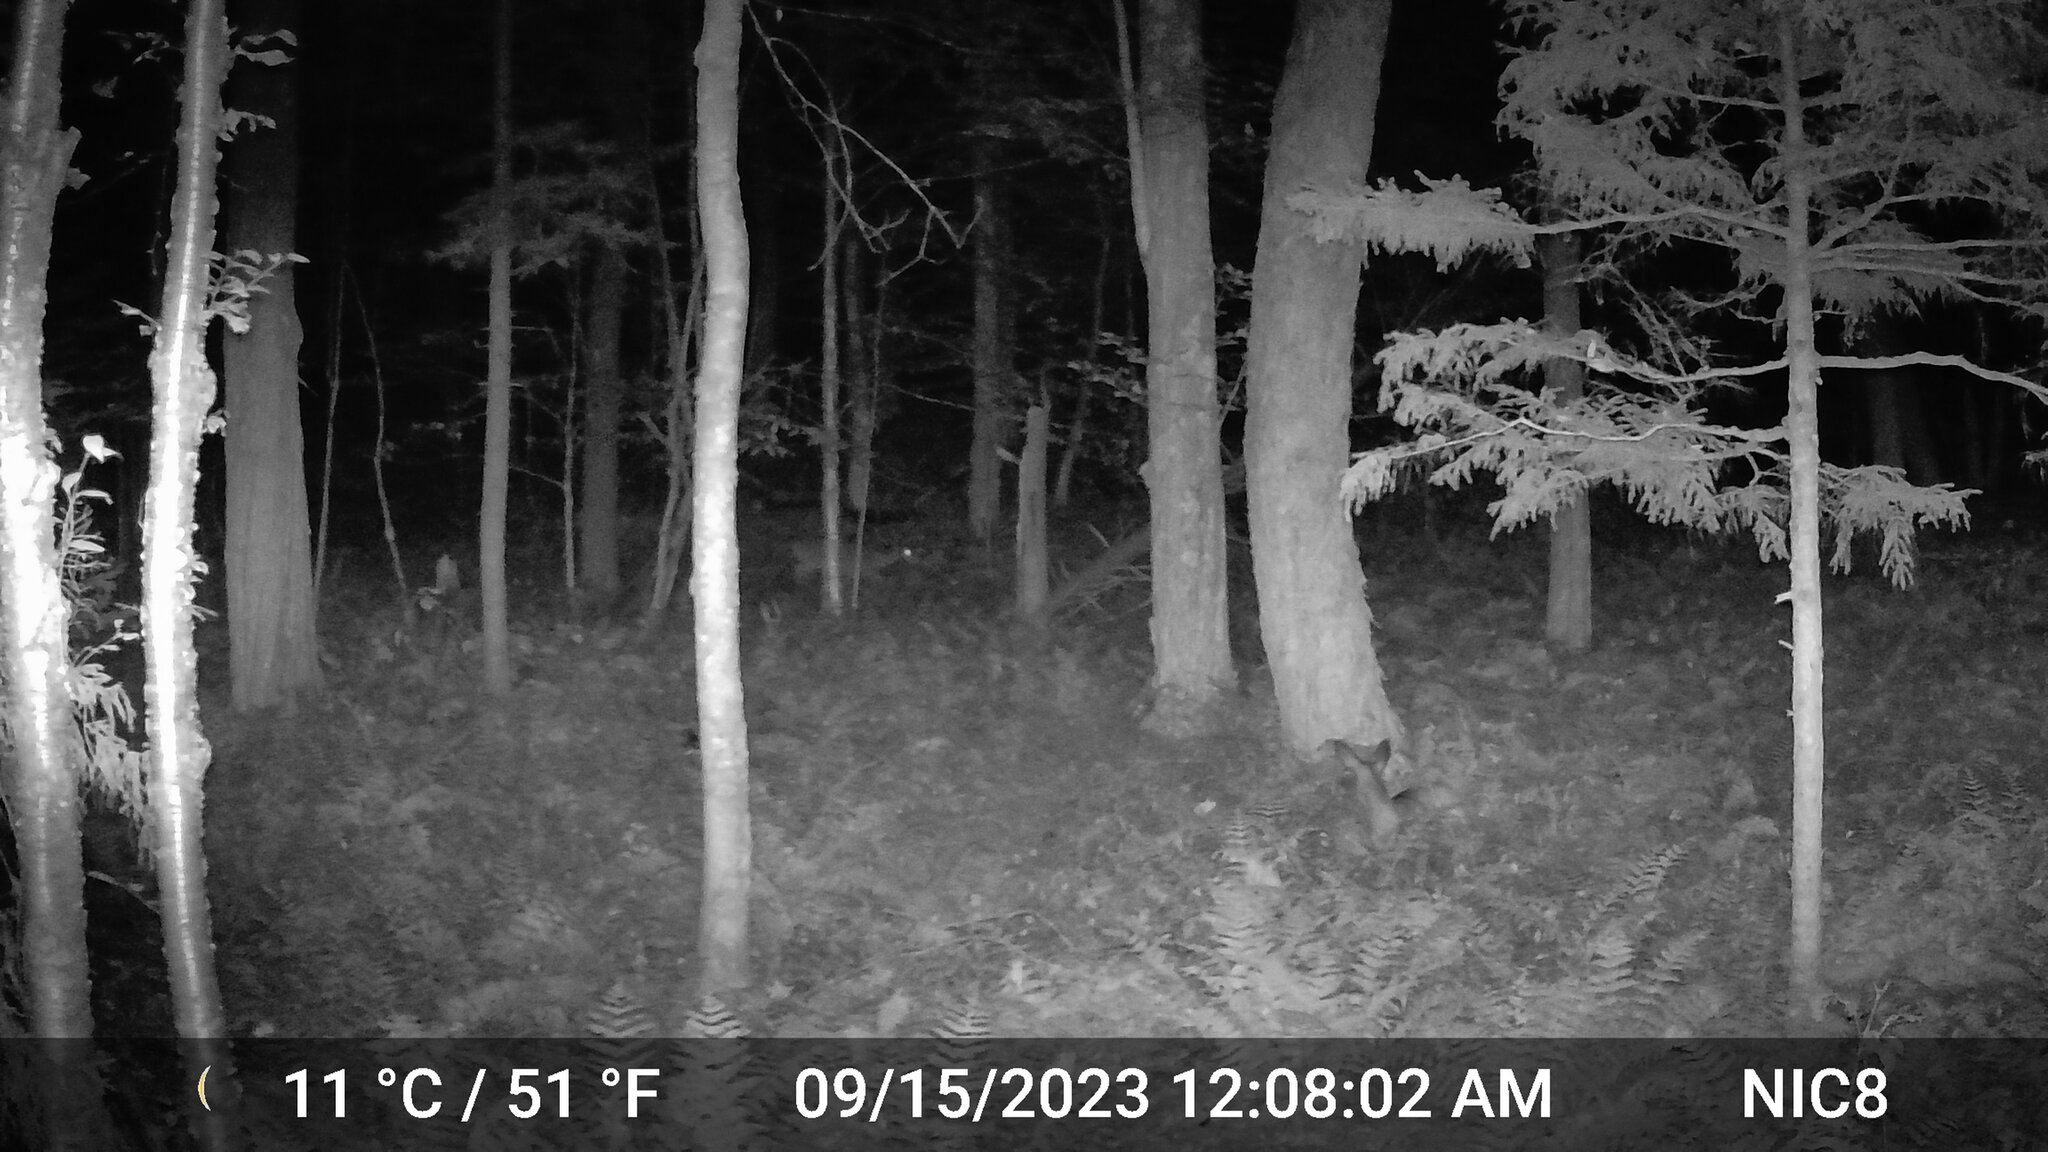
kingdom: Animalia
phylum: Chordata
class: Mammalia
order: Artiodactyla
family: Cervidae
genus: Odocoileus
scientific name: Odocoileus virginianus
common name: White-tailed deer
